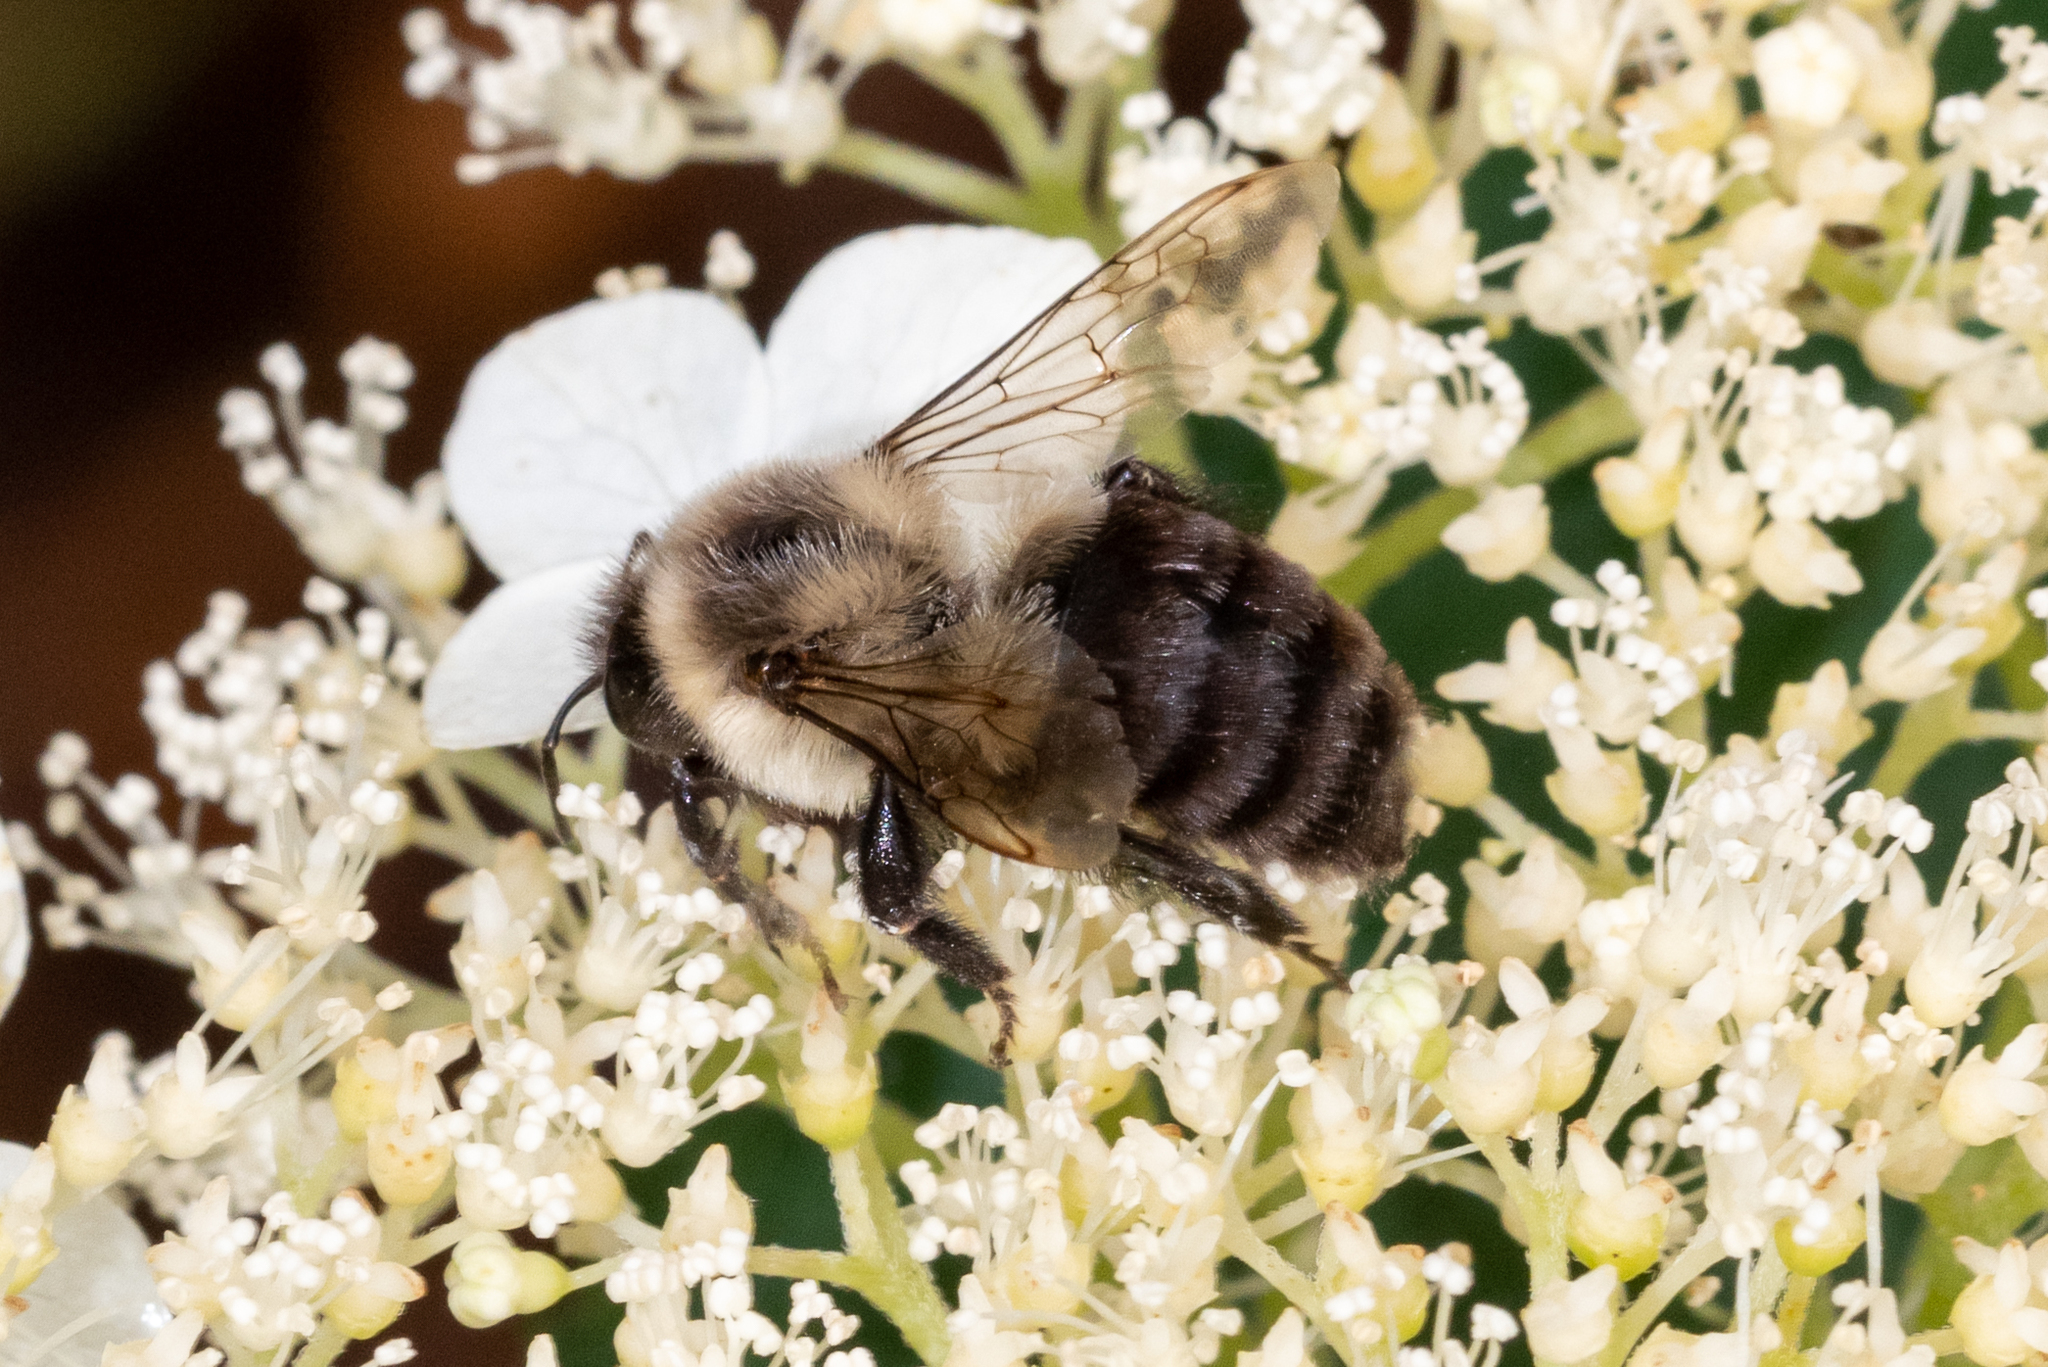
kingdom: Animalia
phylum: Arthropoda
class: Insecta
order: Hymenoptera
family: Apidae
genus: Bombus
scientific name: Bombus impatiens
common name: Common eastern bumble bee
